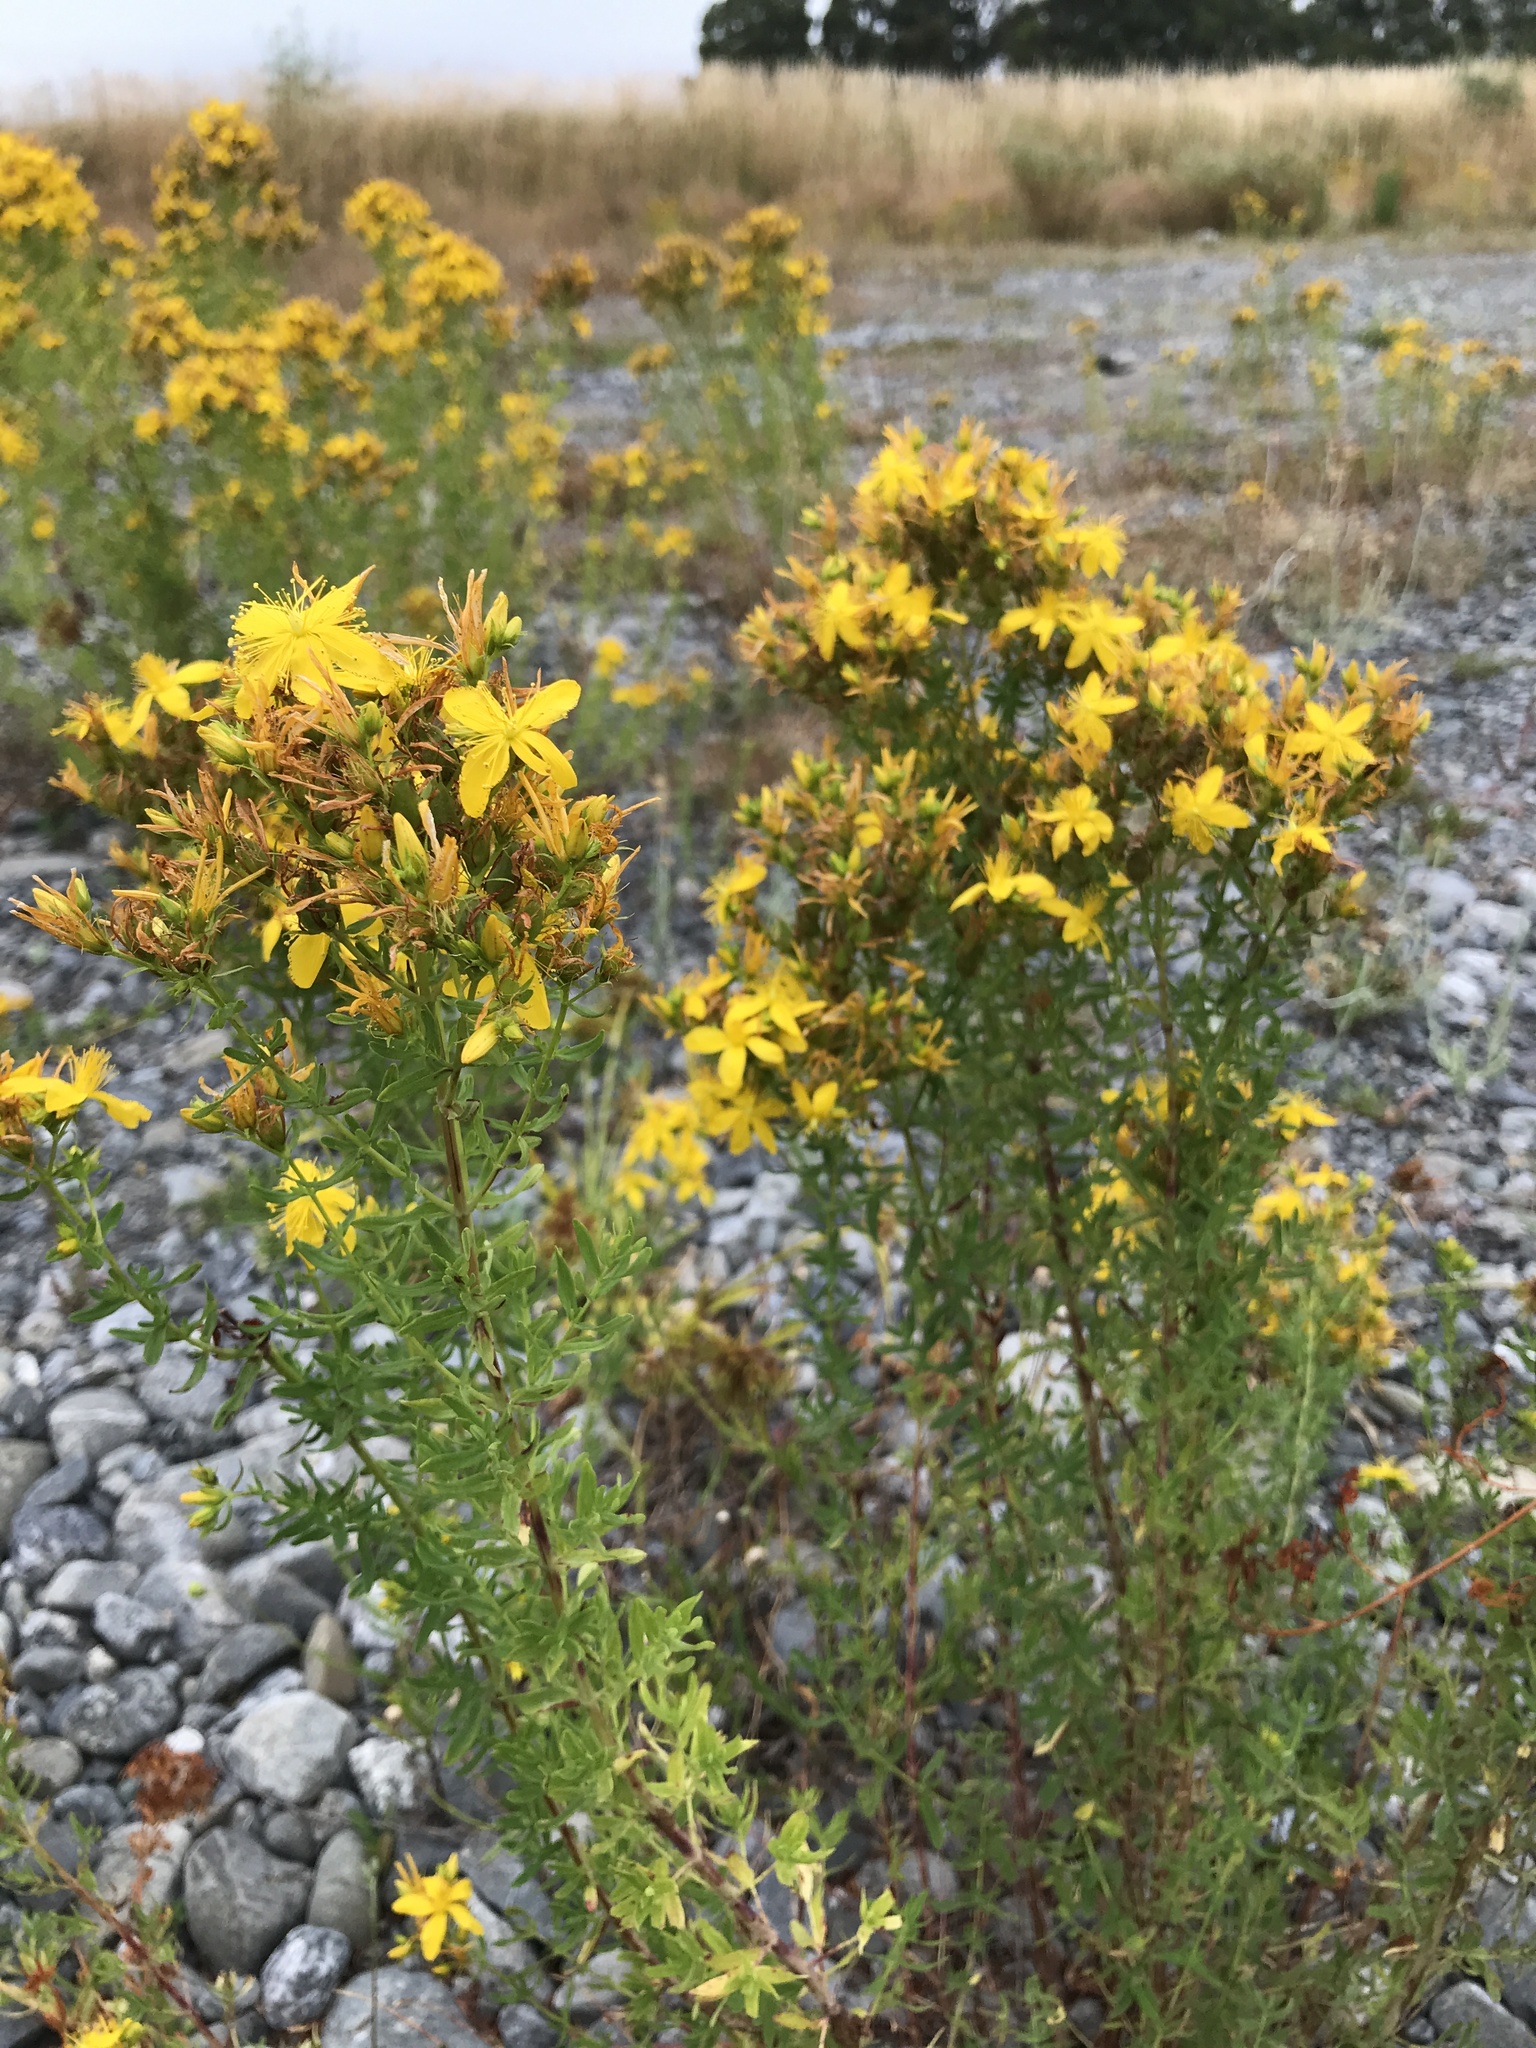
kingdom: Plantae
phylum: Tracheophyta
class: Magnoliopsida
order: Malpighiales
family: Hypericaceae
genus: Hypericum
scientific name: Hypericum perforatum
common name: Common st. johnswort
